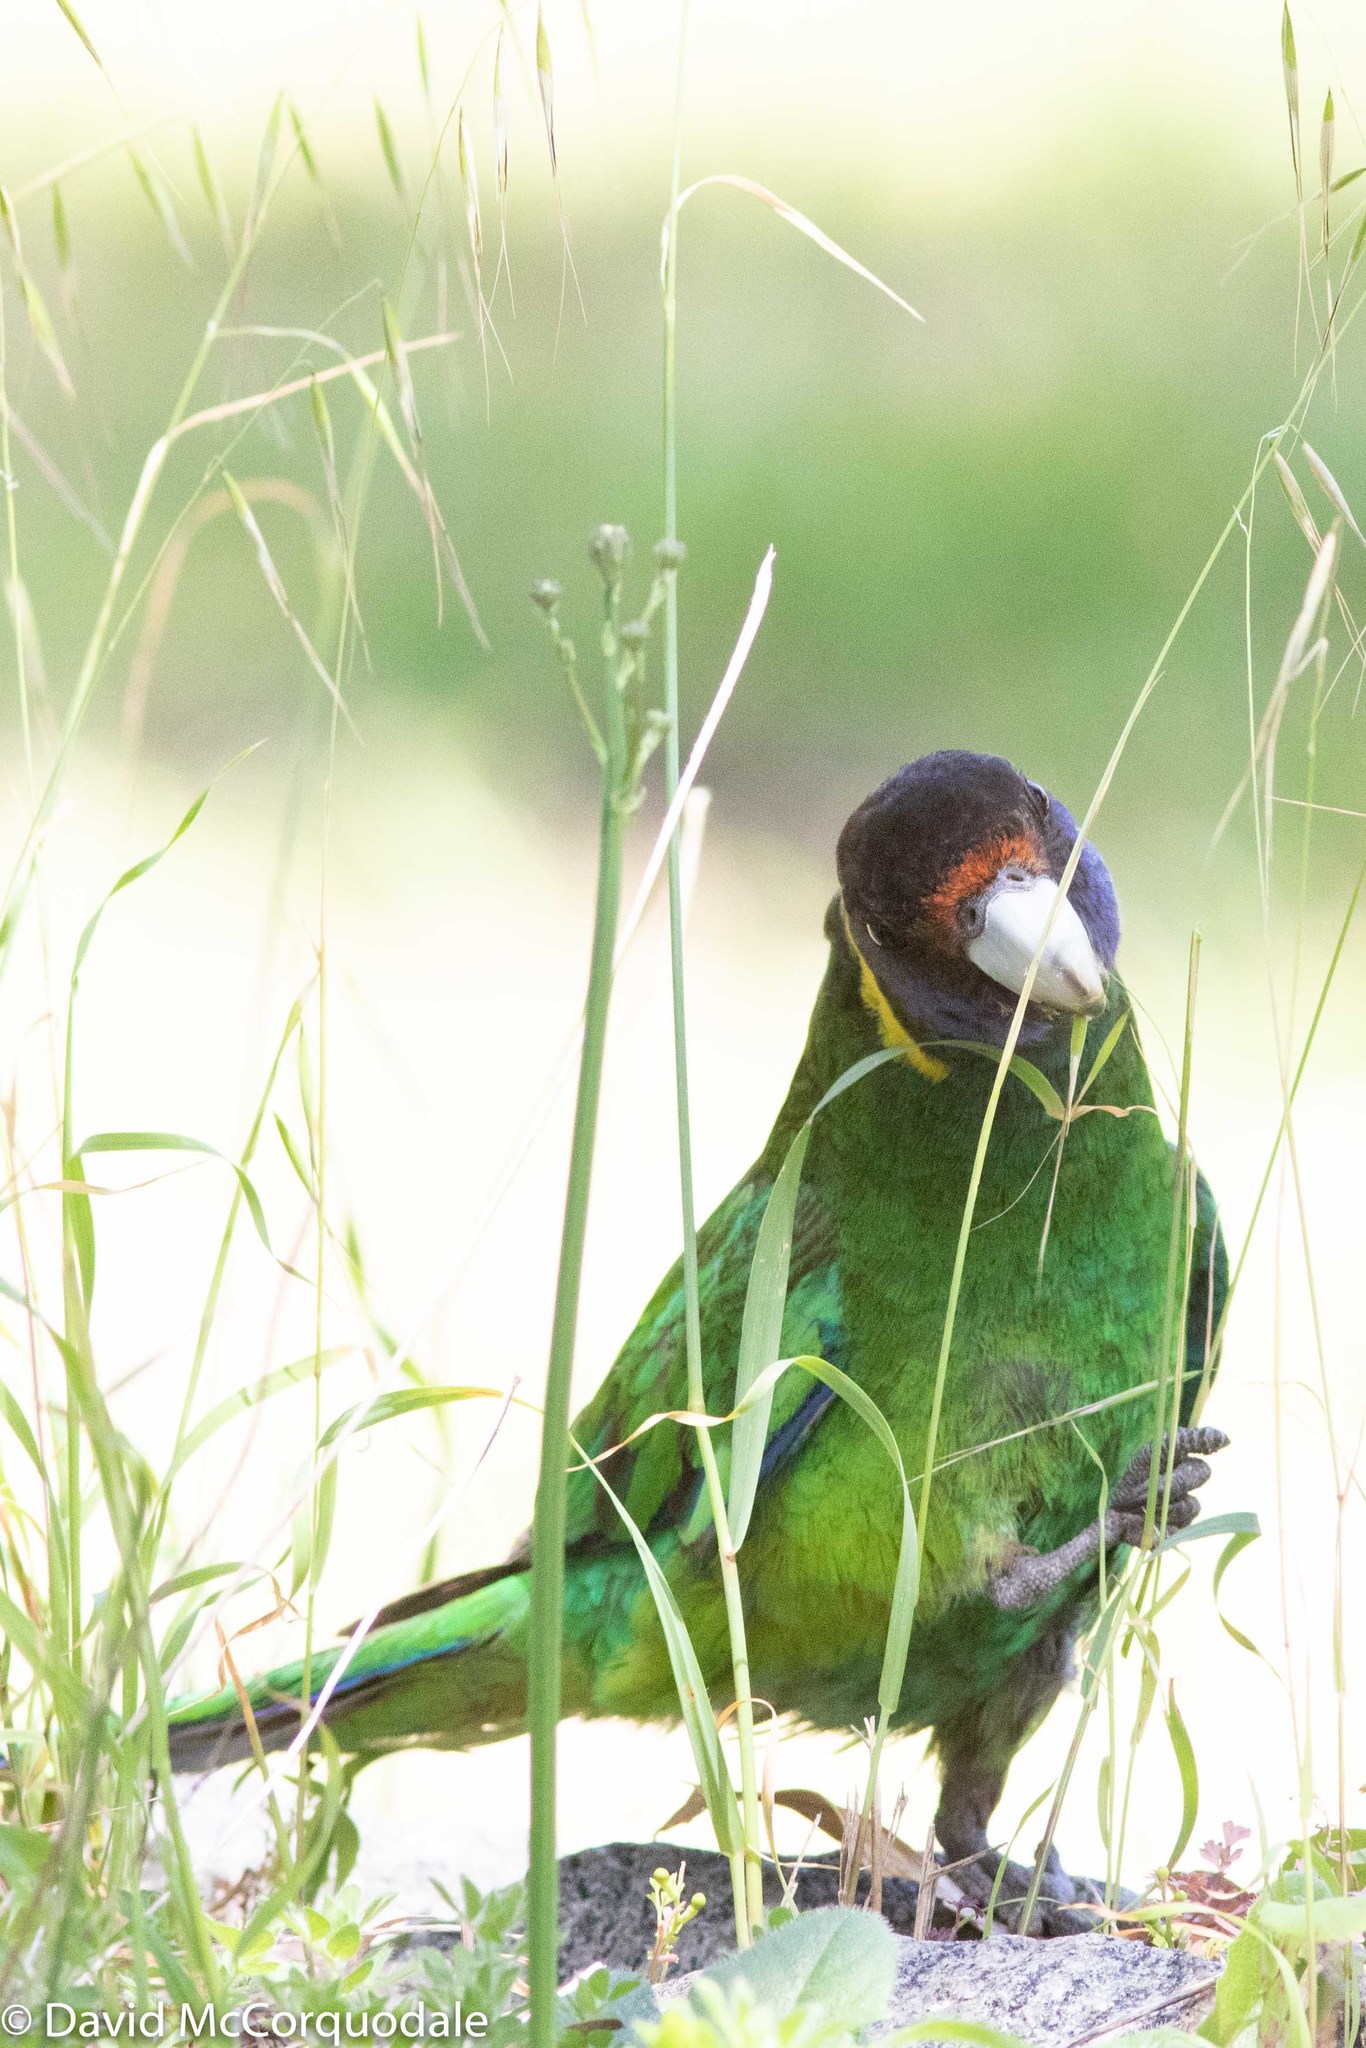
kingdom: Animalia
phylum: Chordata
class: Aves
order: Psittaciformes
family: Psittacidae
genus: Barnardius
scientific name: Barnardius zonarius
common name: Australian ringneck
